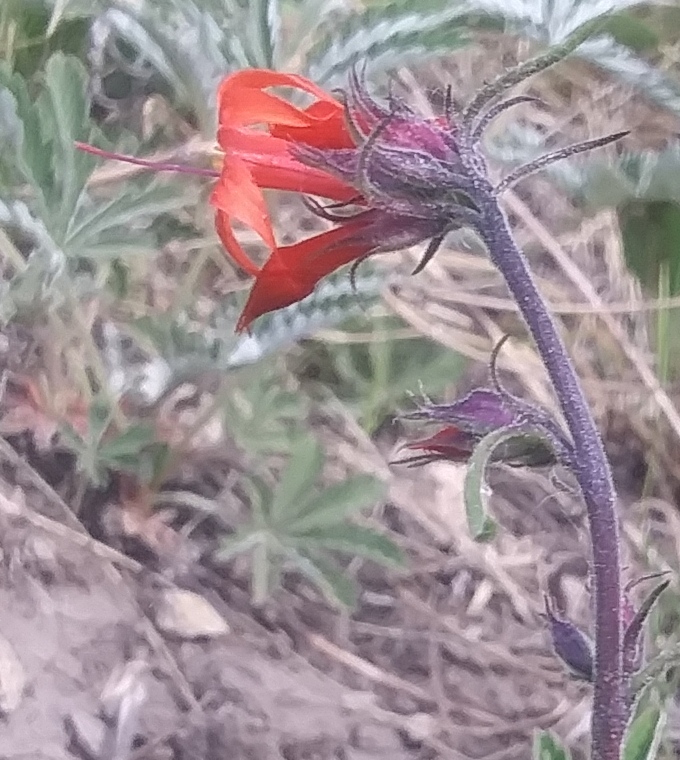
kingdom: Plantae
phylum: Tracheophyta
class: Magnoliopsida
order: Ericales
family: Polemoniaceae
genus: Ipomopsis
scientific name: Ipomopsis aggregata
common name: Scarlet gilia
